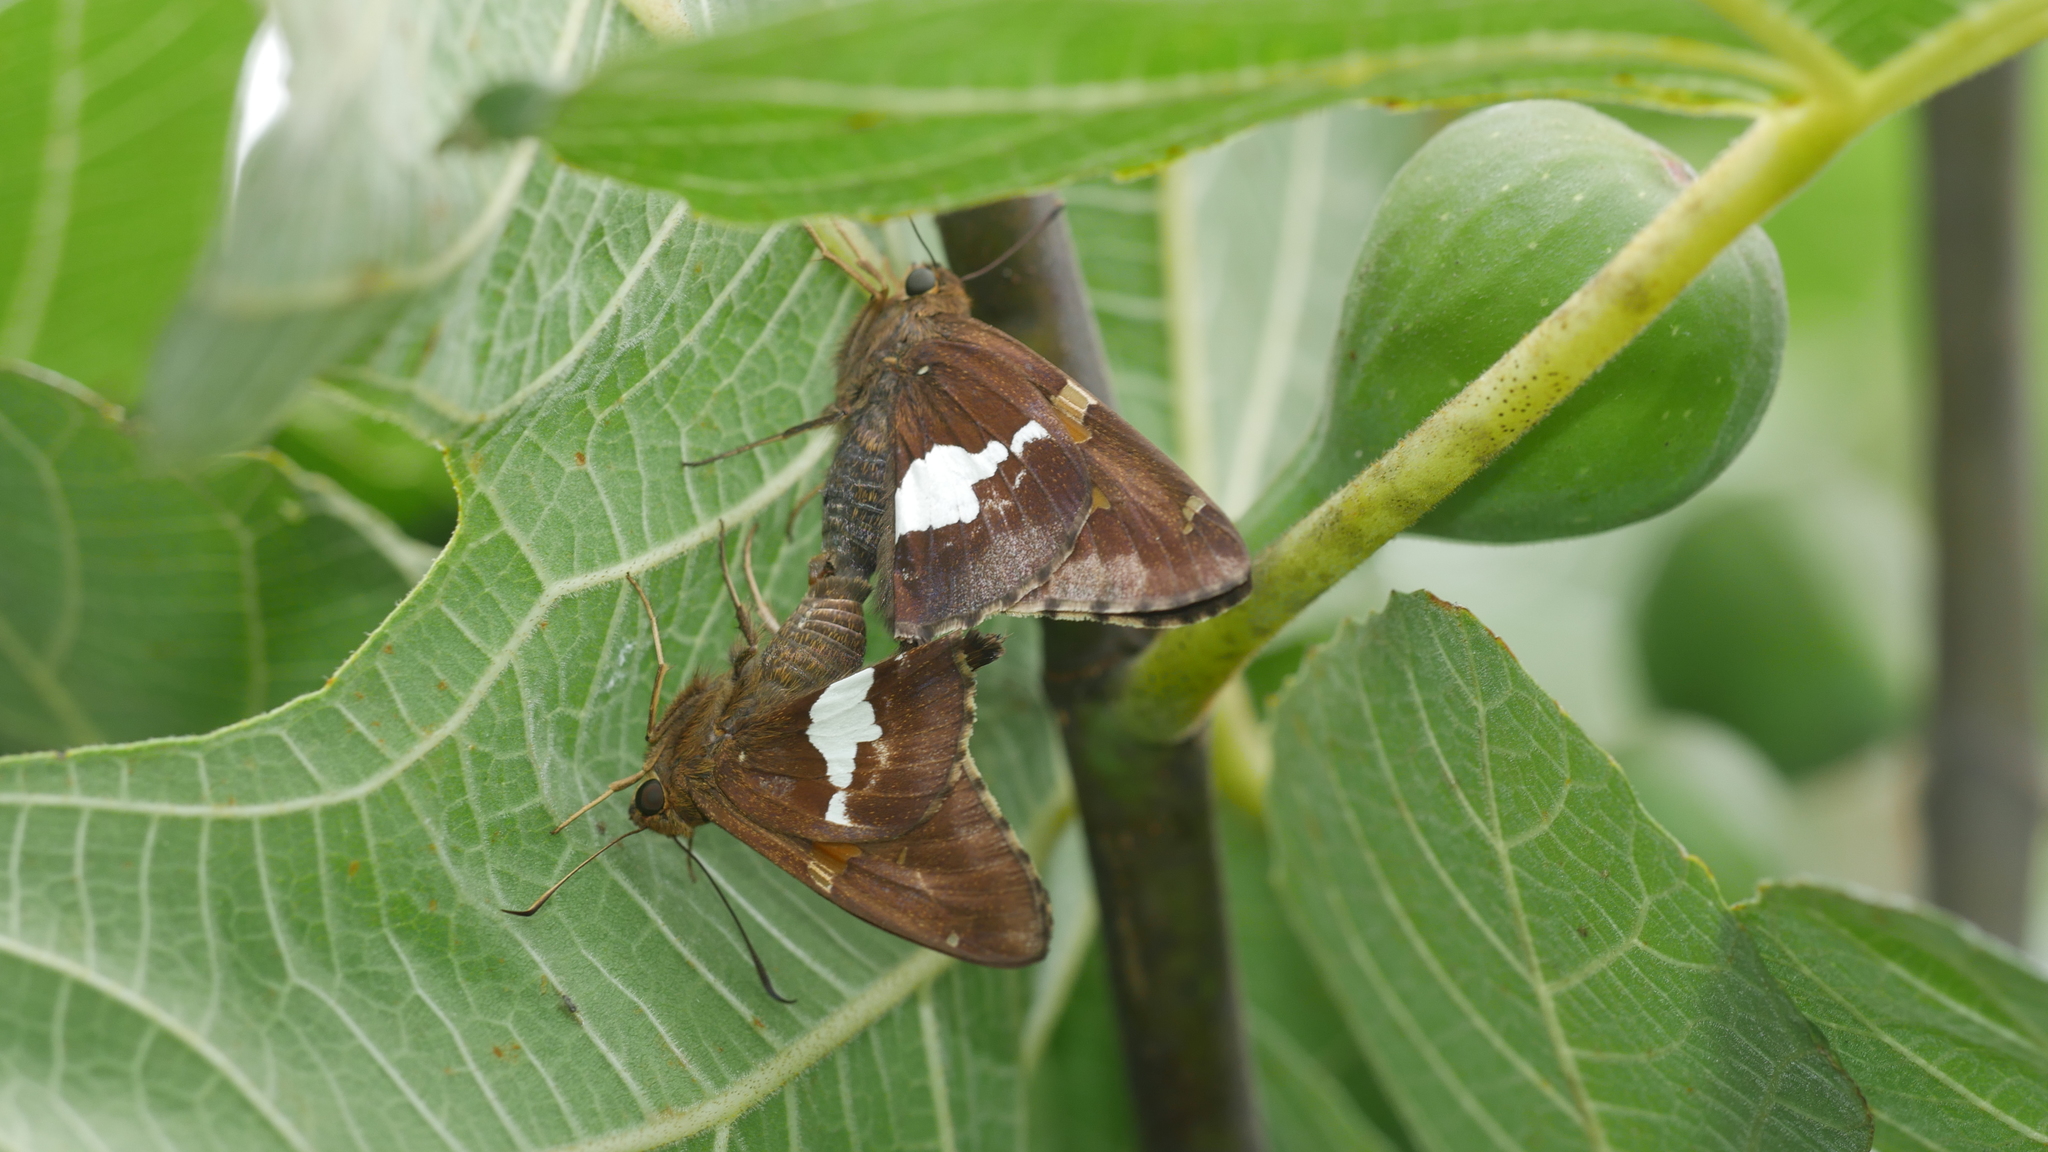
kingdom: Animalia
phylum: Arthropoda
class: Insecta
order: Lepidoptera
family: Hesperiidae
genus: Epargyreus
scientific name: Epargyreus clarus
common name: Silver-spotted skipper
